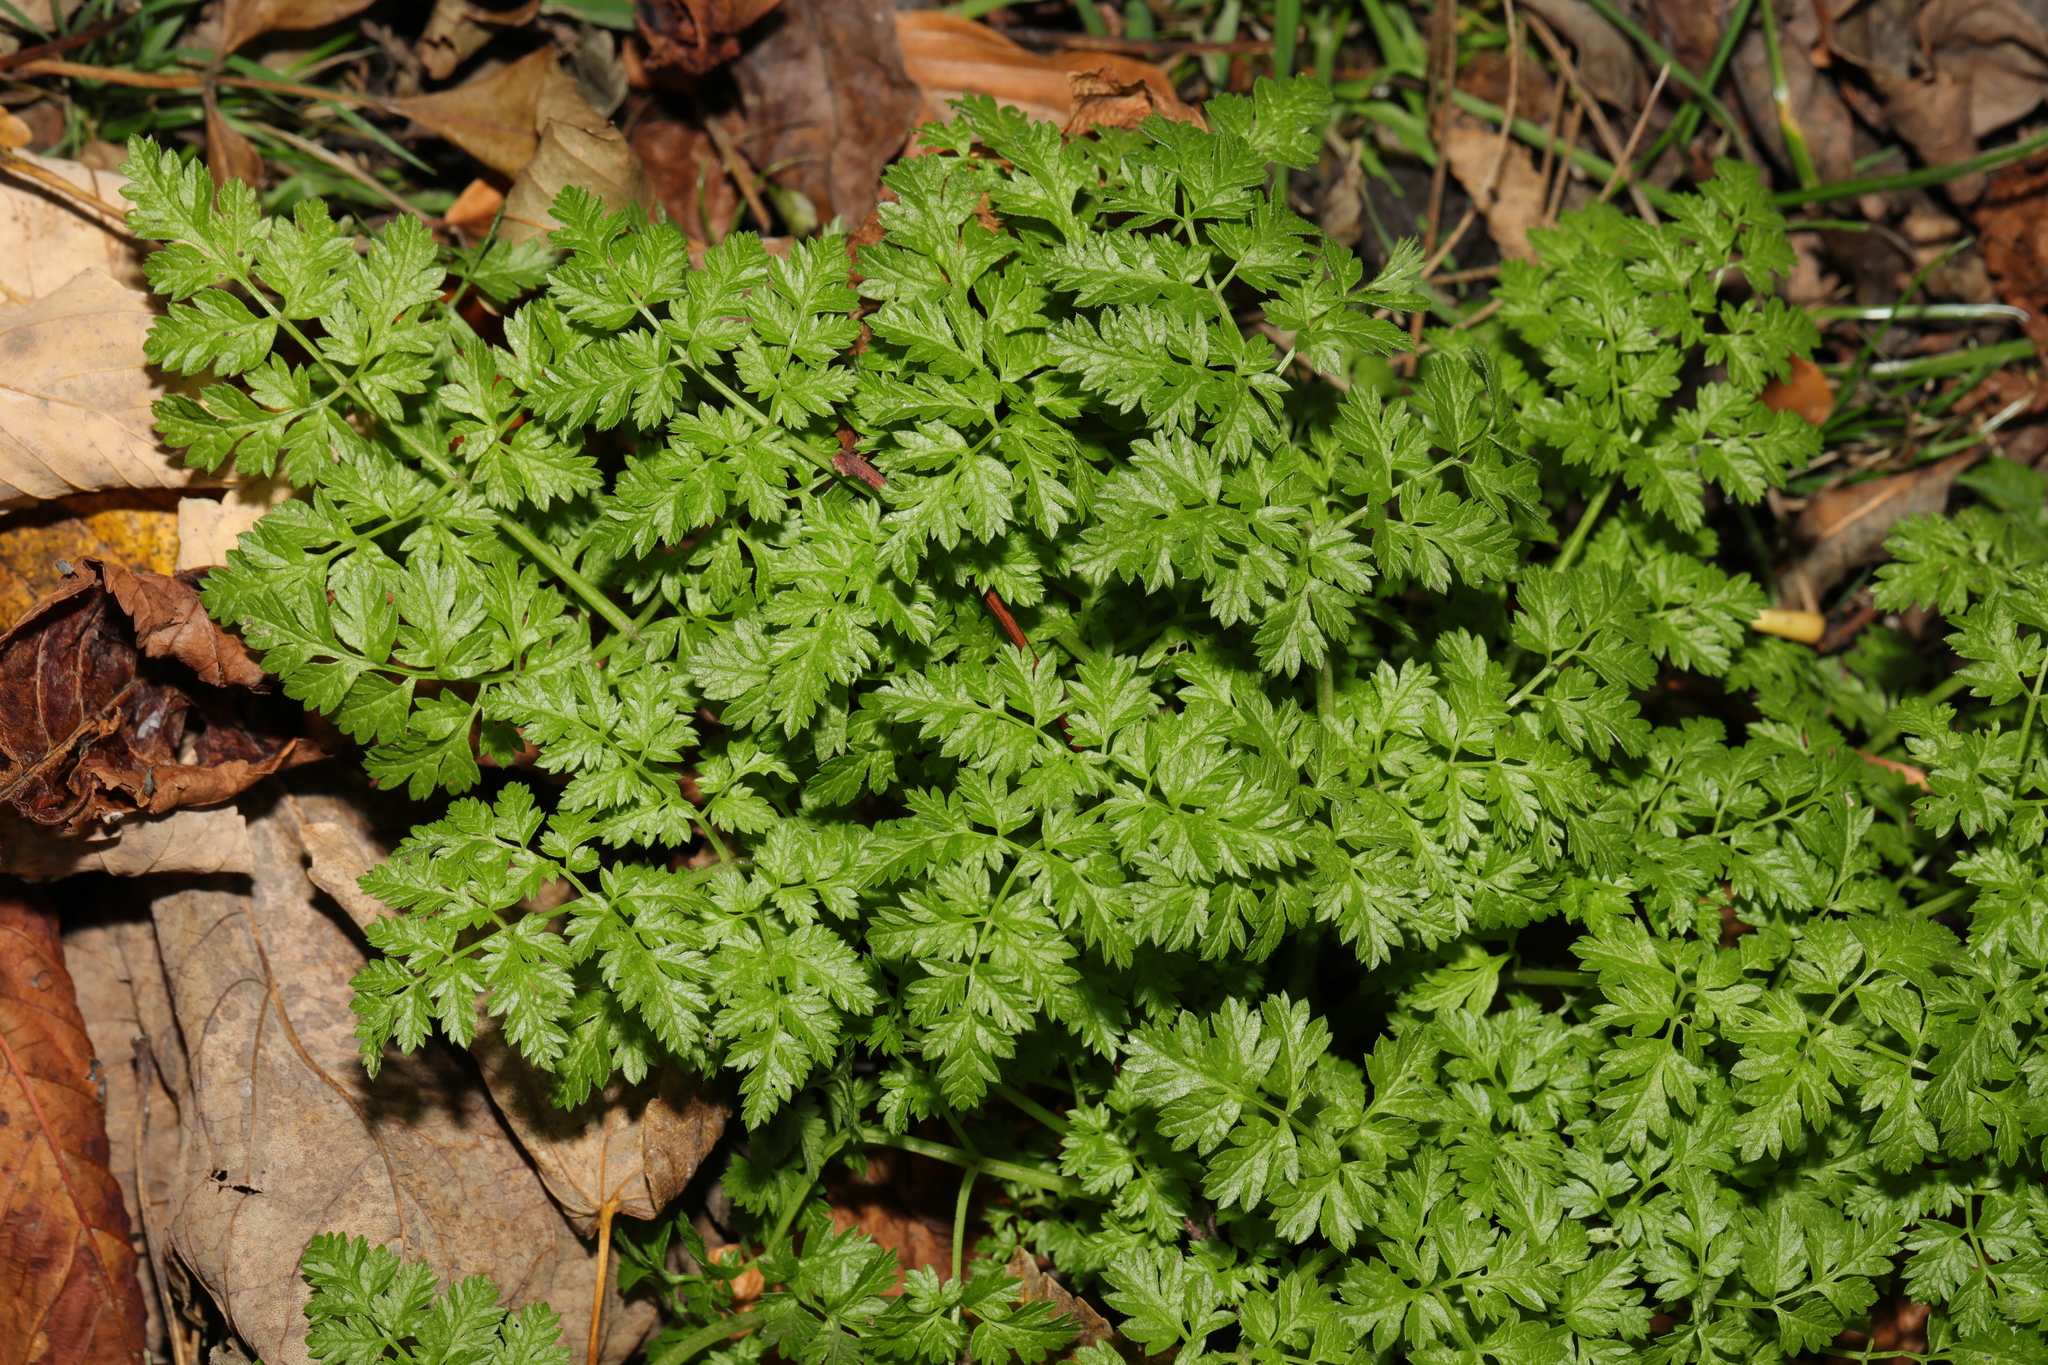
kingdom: Plantae
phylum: Tracheophyta
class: Magnoliopsida
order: Apiales
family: Apiaceae
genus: Anthriscus
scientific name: Anthriscus sylvestris
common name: Cow parsley
